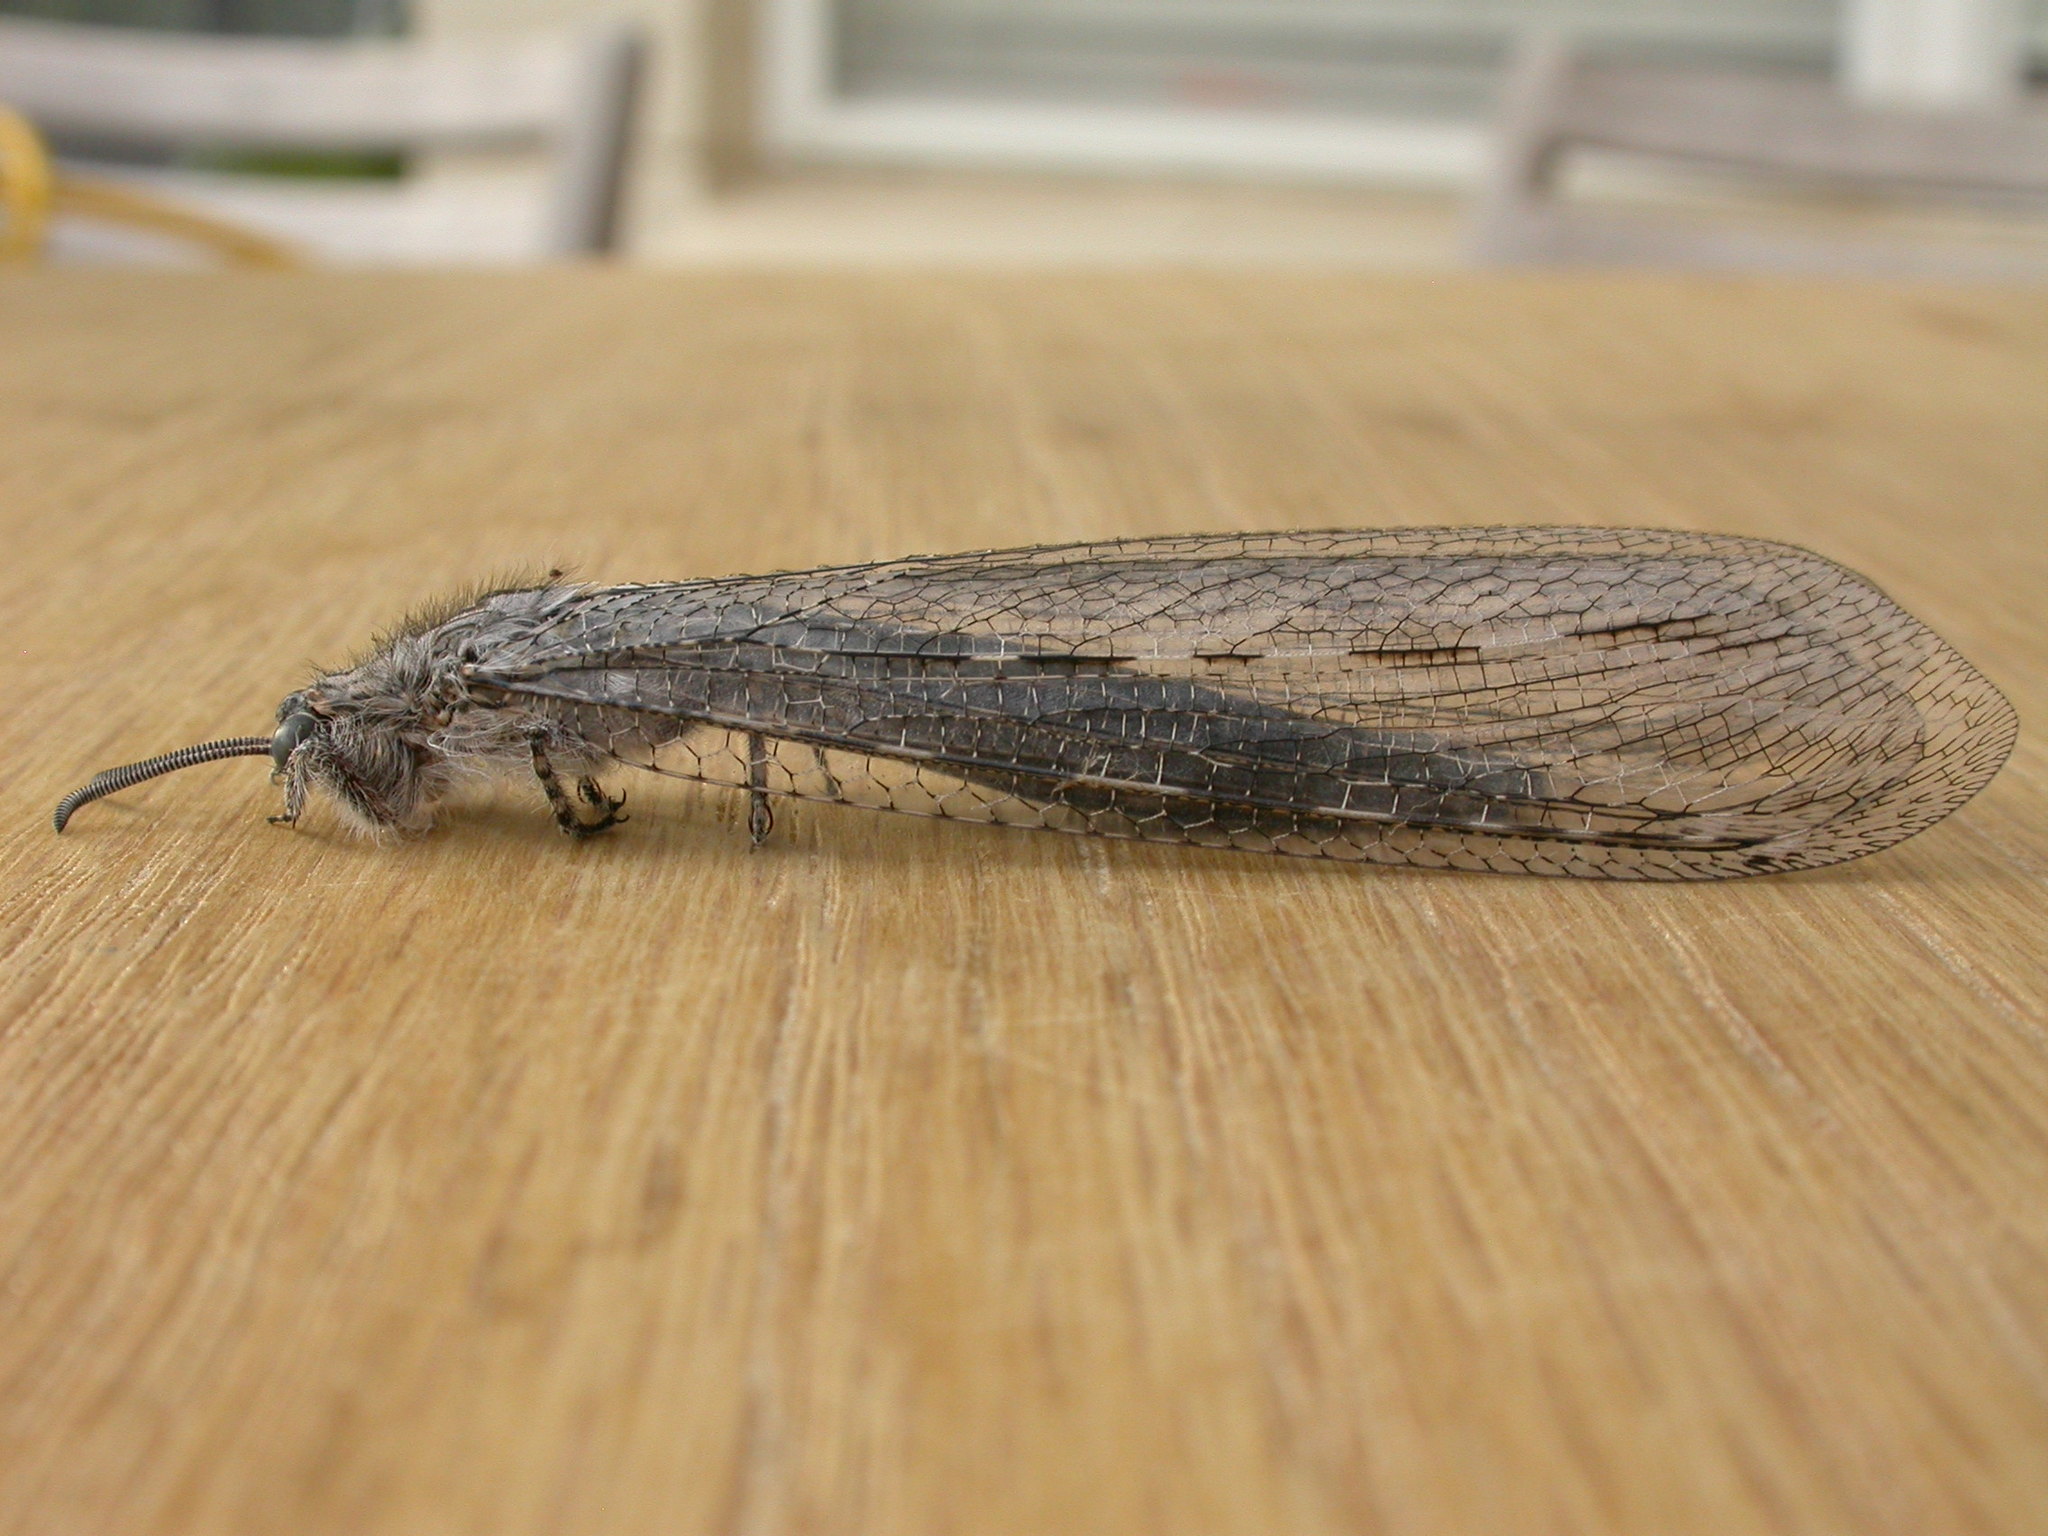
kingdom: Animalia
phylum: Arthropoda
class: Insecta
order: Neuroptera
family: Myrmeleontidae
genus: Heoclisis
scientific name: Heoclisis fundata
